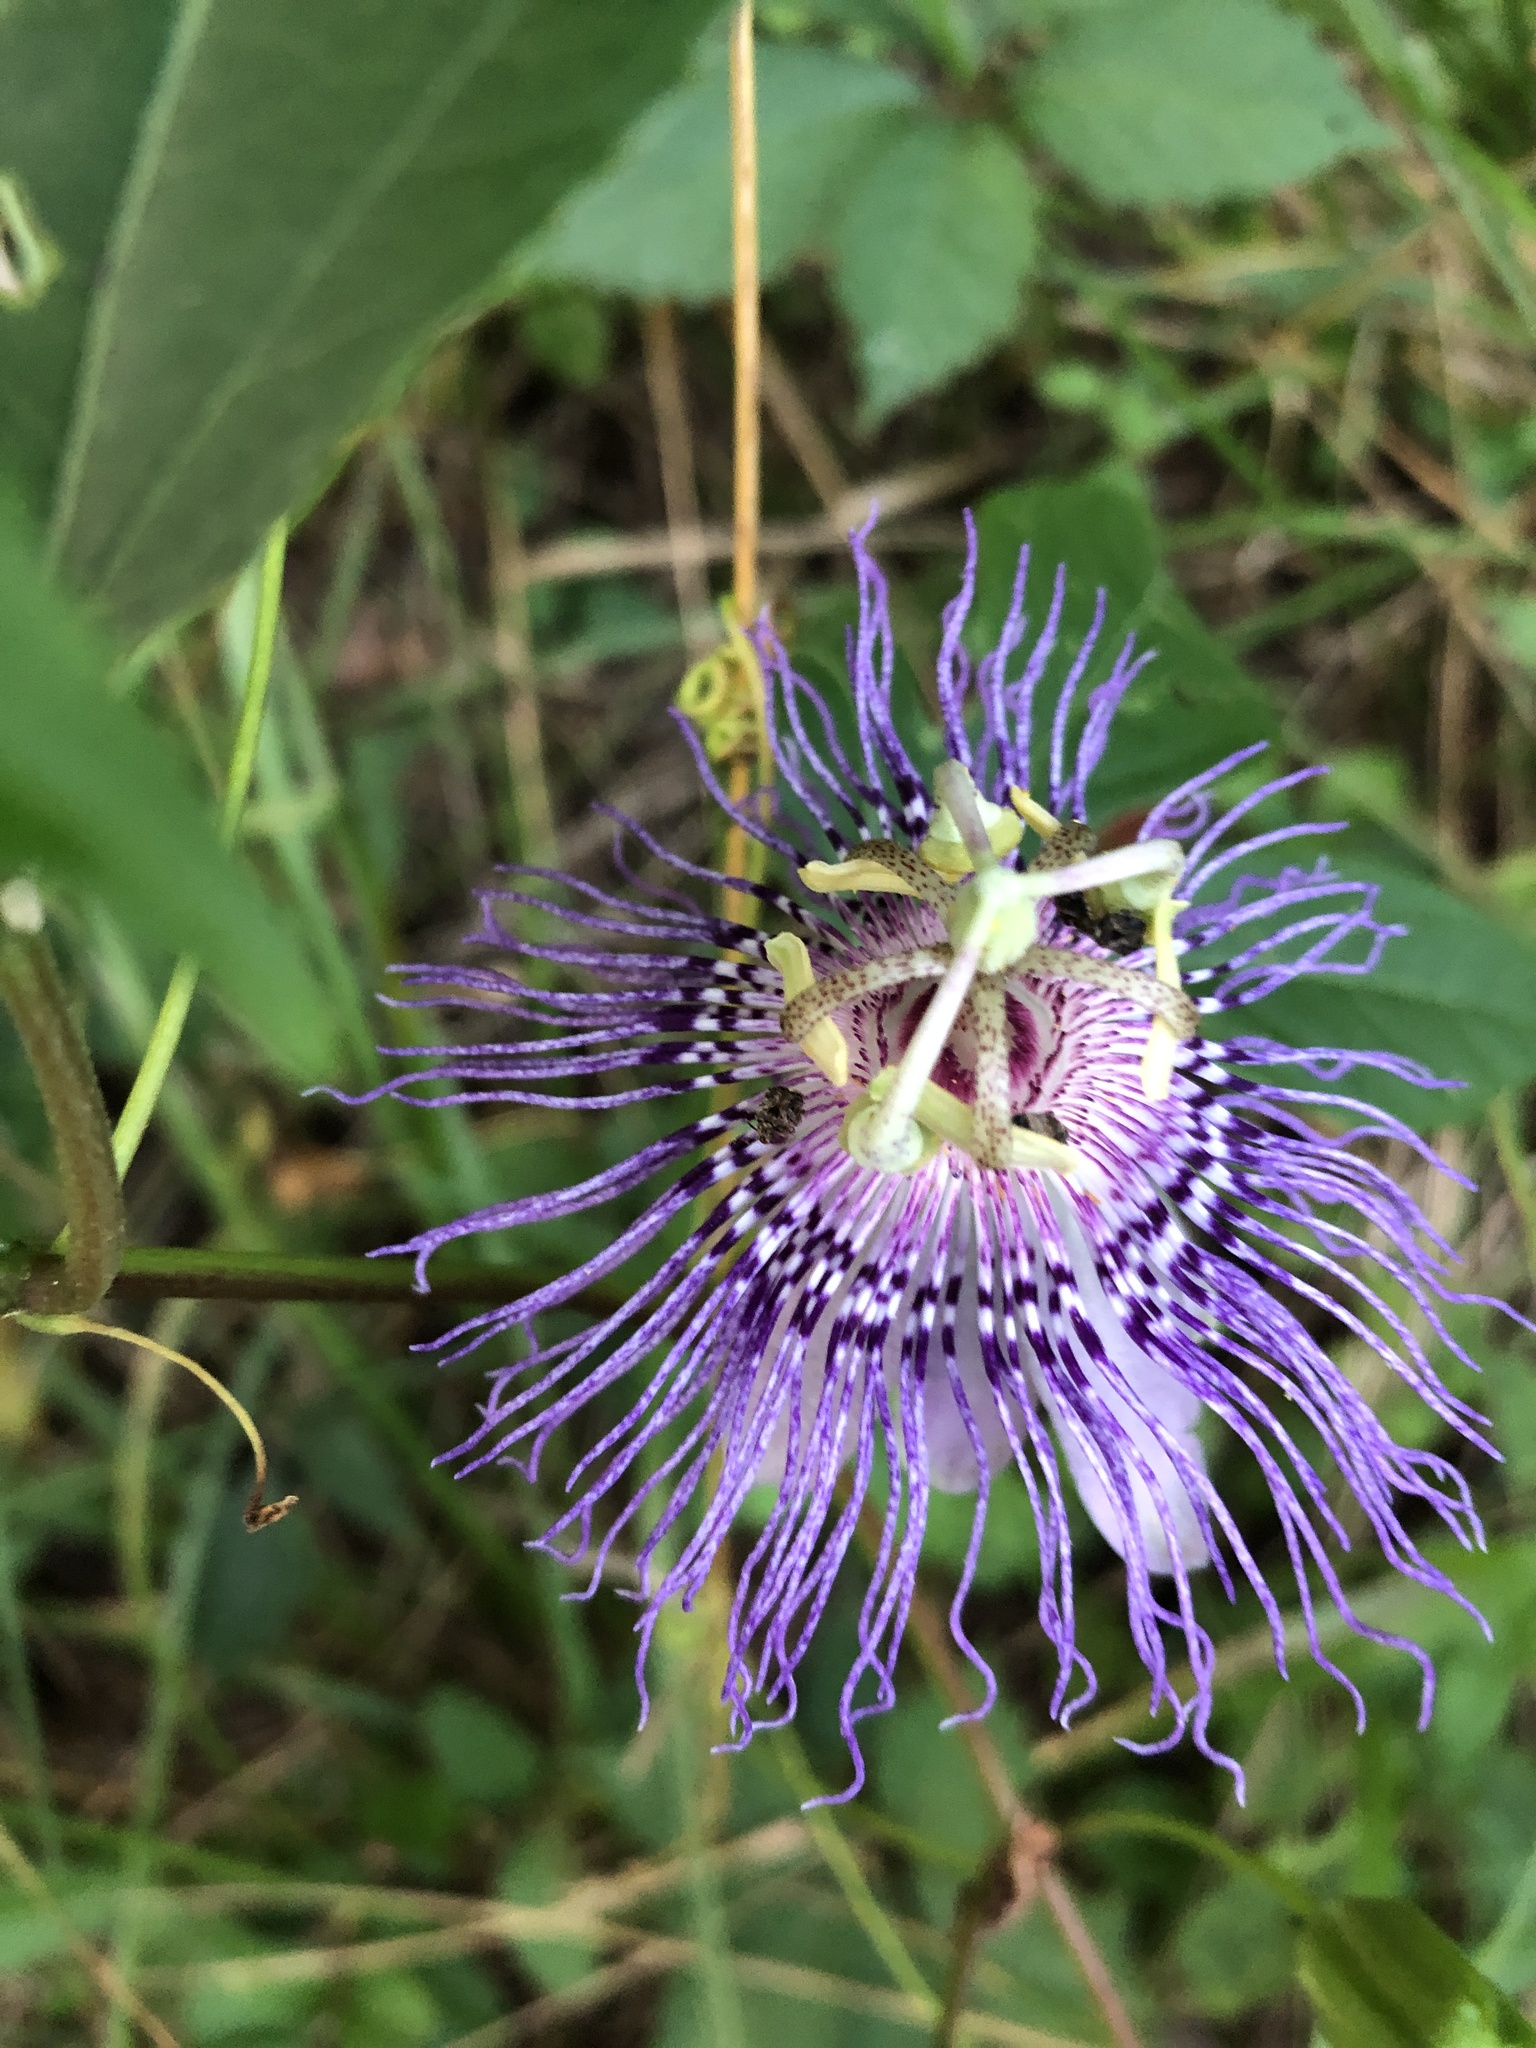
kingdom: Plantae
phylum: Tracheophyta
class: Magnoliopsida
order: Malpighiales
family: Passifloraceae
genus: Passiflora
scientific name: Passiflora incarnata
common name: Apricot-vine
